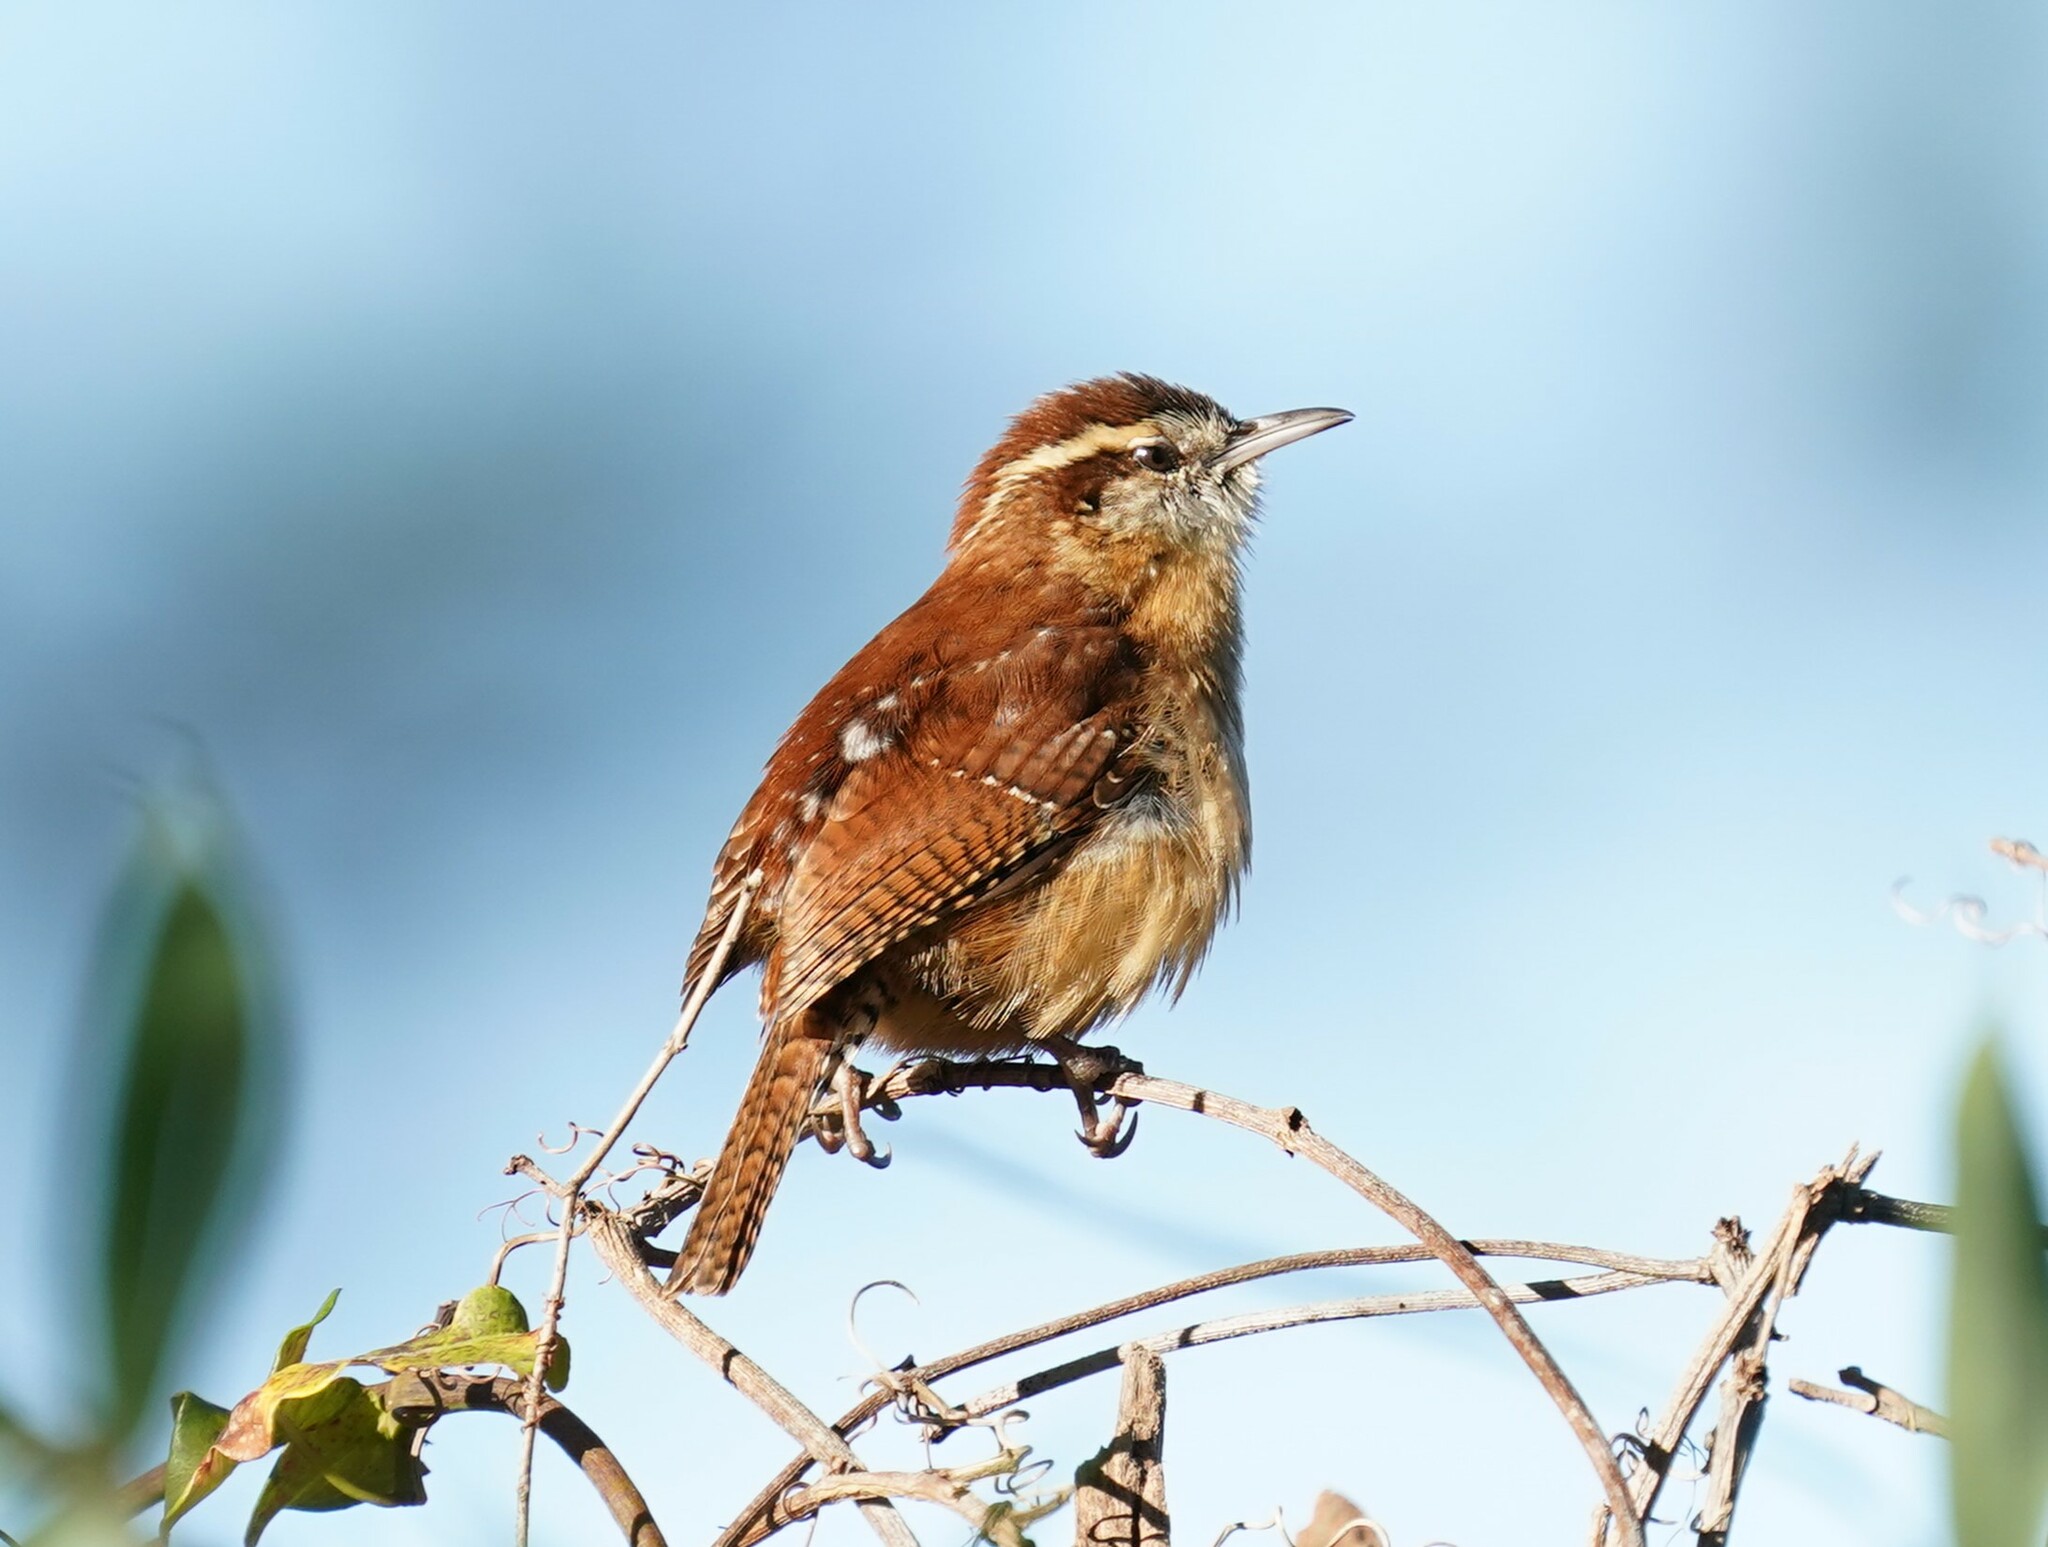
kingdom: Animalia
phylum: Chordata
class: Aves
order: Passeriformes
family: Troglodytidae
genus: Thryothorus
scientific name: Thryothorus ludovicianus
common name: Carolina wren
